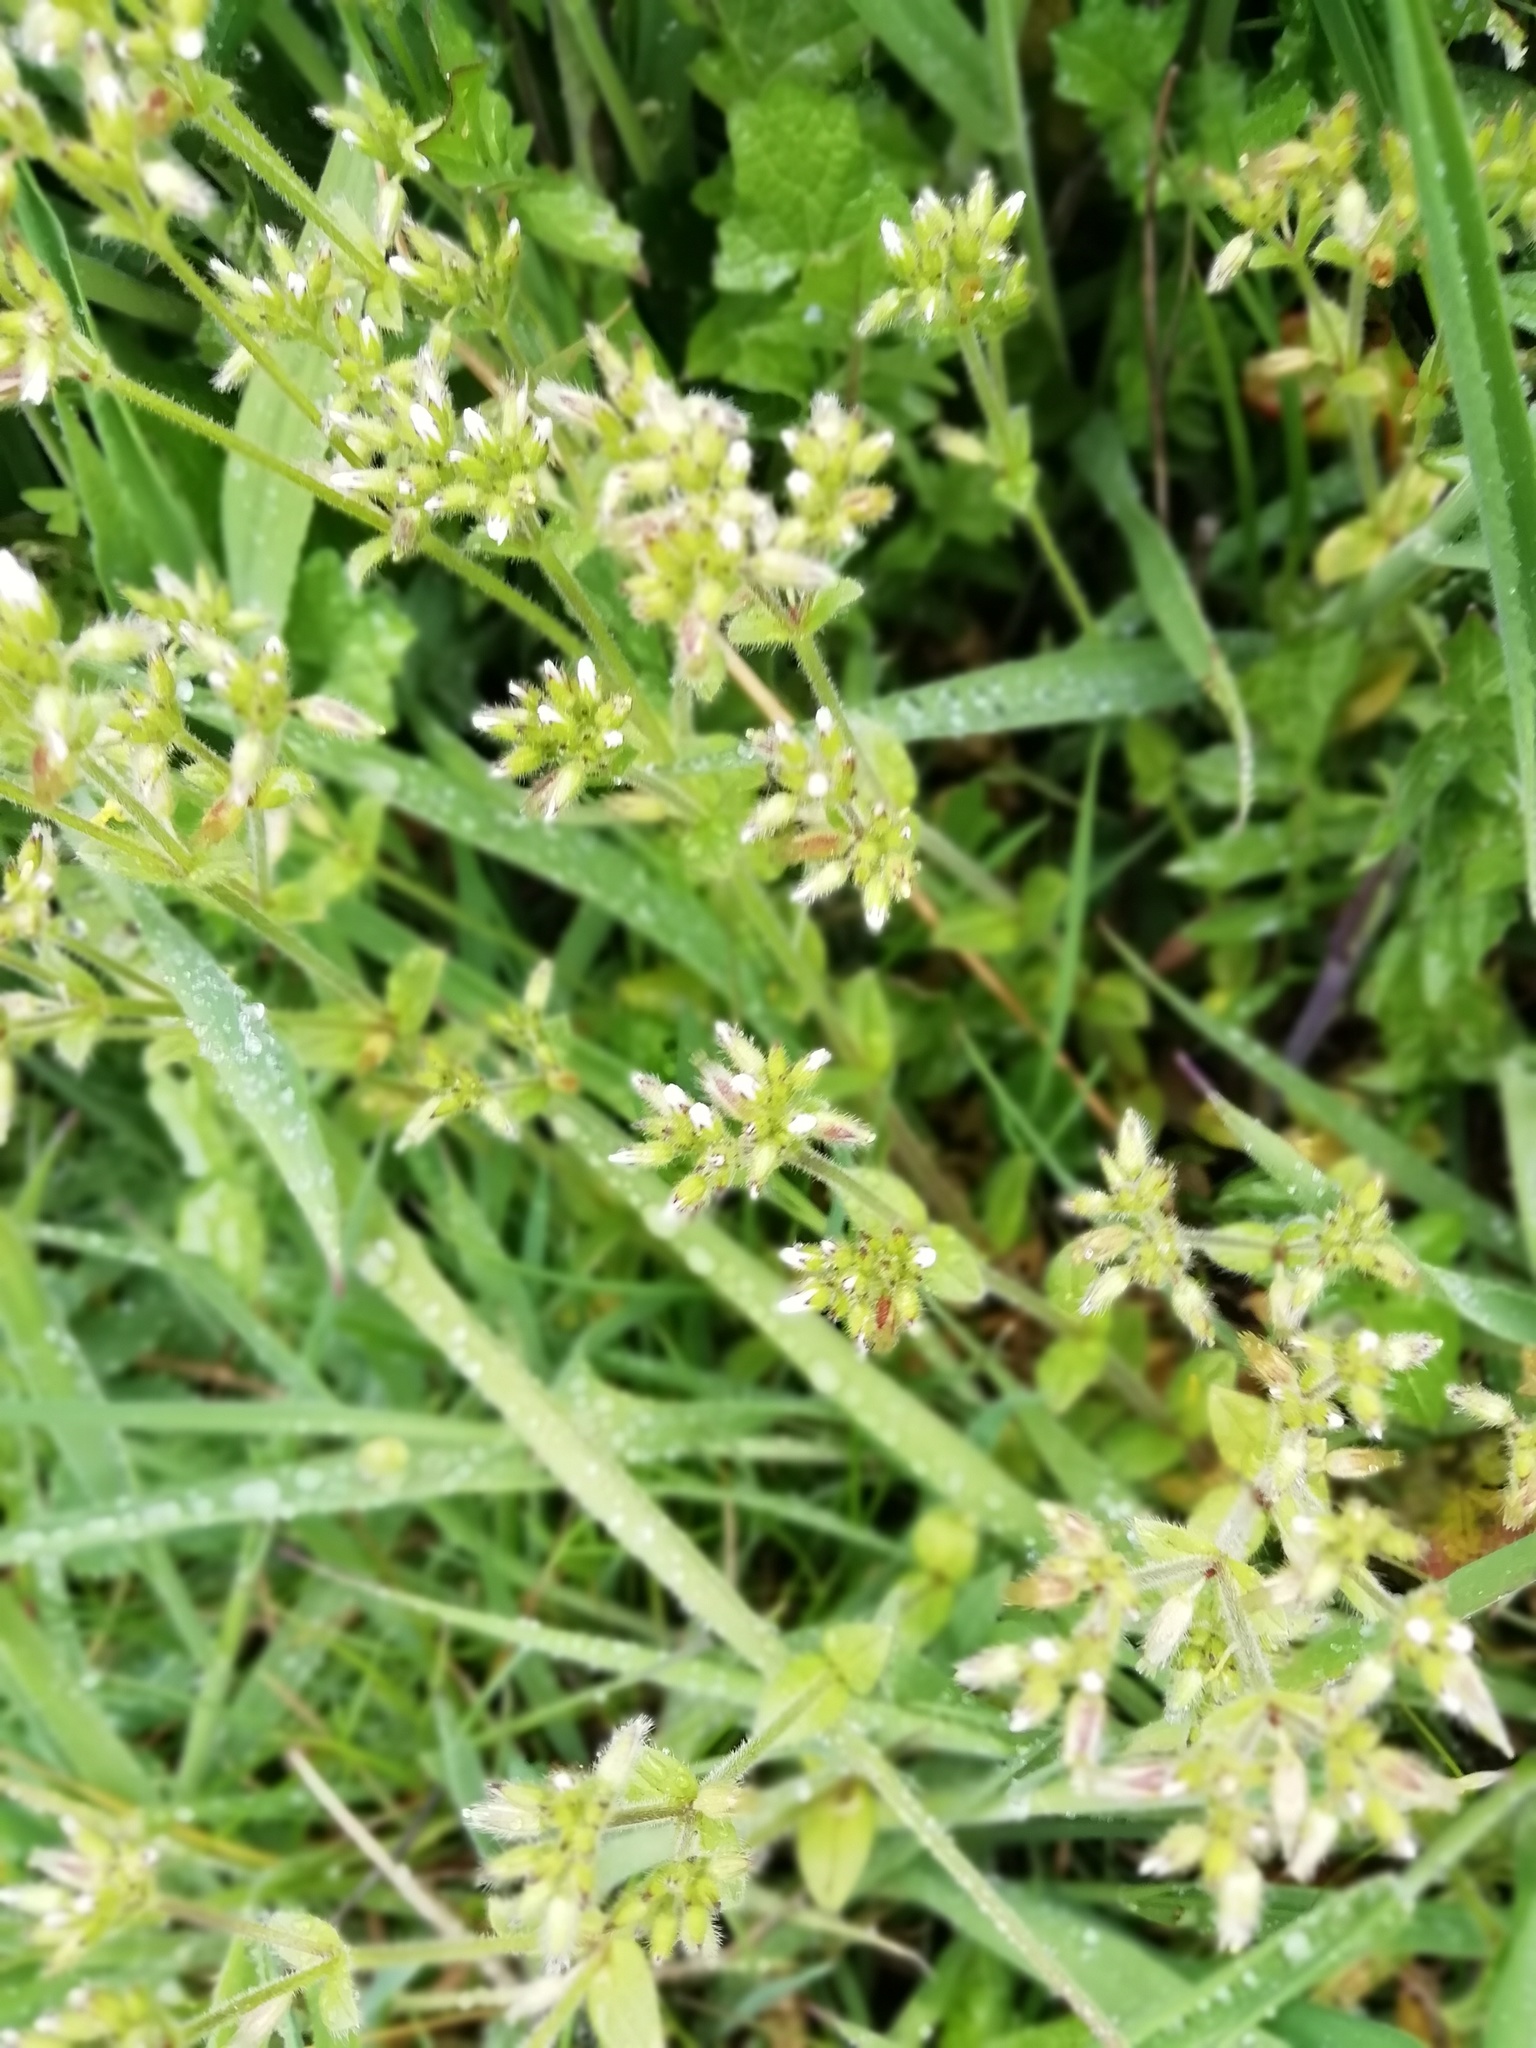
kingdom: Plantae
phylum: Tracheophyta
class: Magnoliopsida
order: Caryophyllales
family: Caryophyllaceae
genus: Cerastium
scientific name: Cerastium glomeratum
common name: Sticky chickweed
